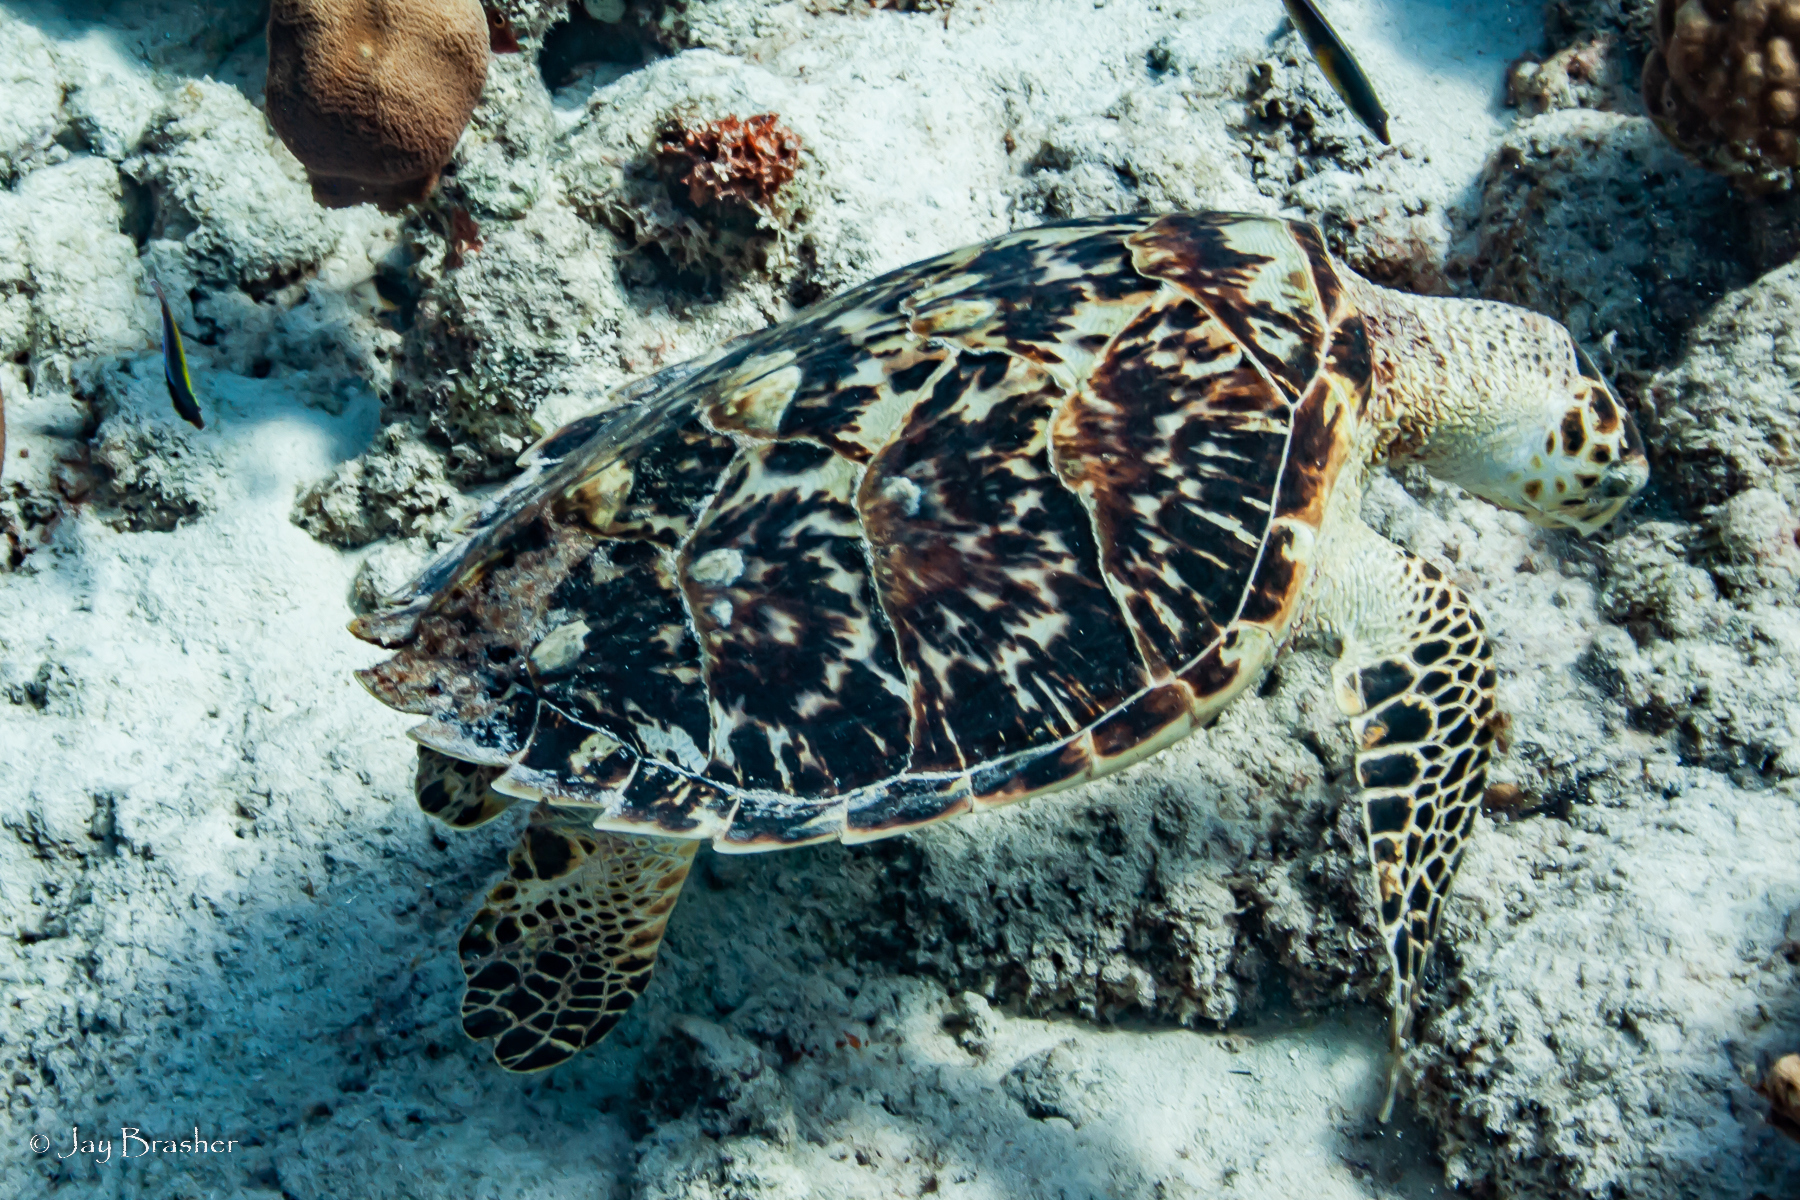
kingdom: Animalia
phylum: Chordata
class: Testudines
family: Cheloniidae
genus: Eretmochelys
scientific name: Eretmochelys imbricata
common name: Hawksbill turtle
